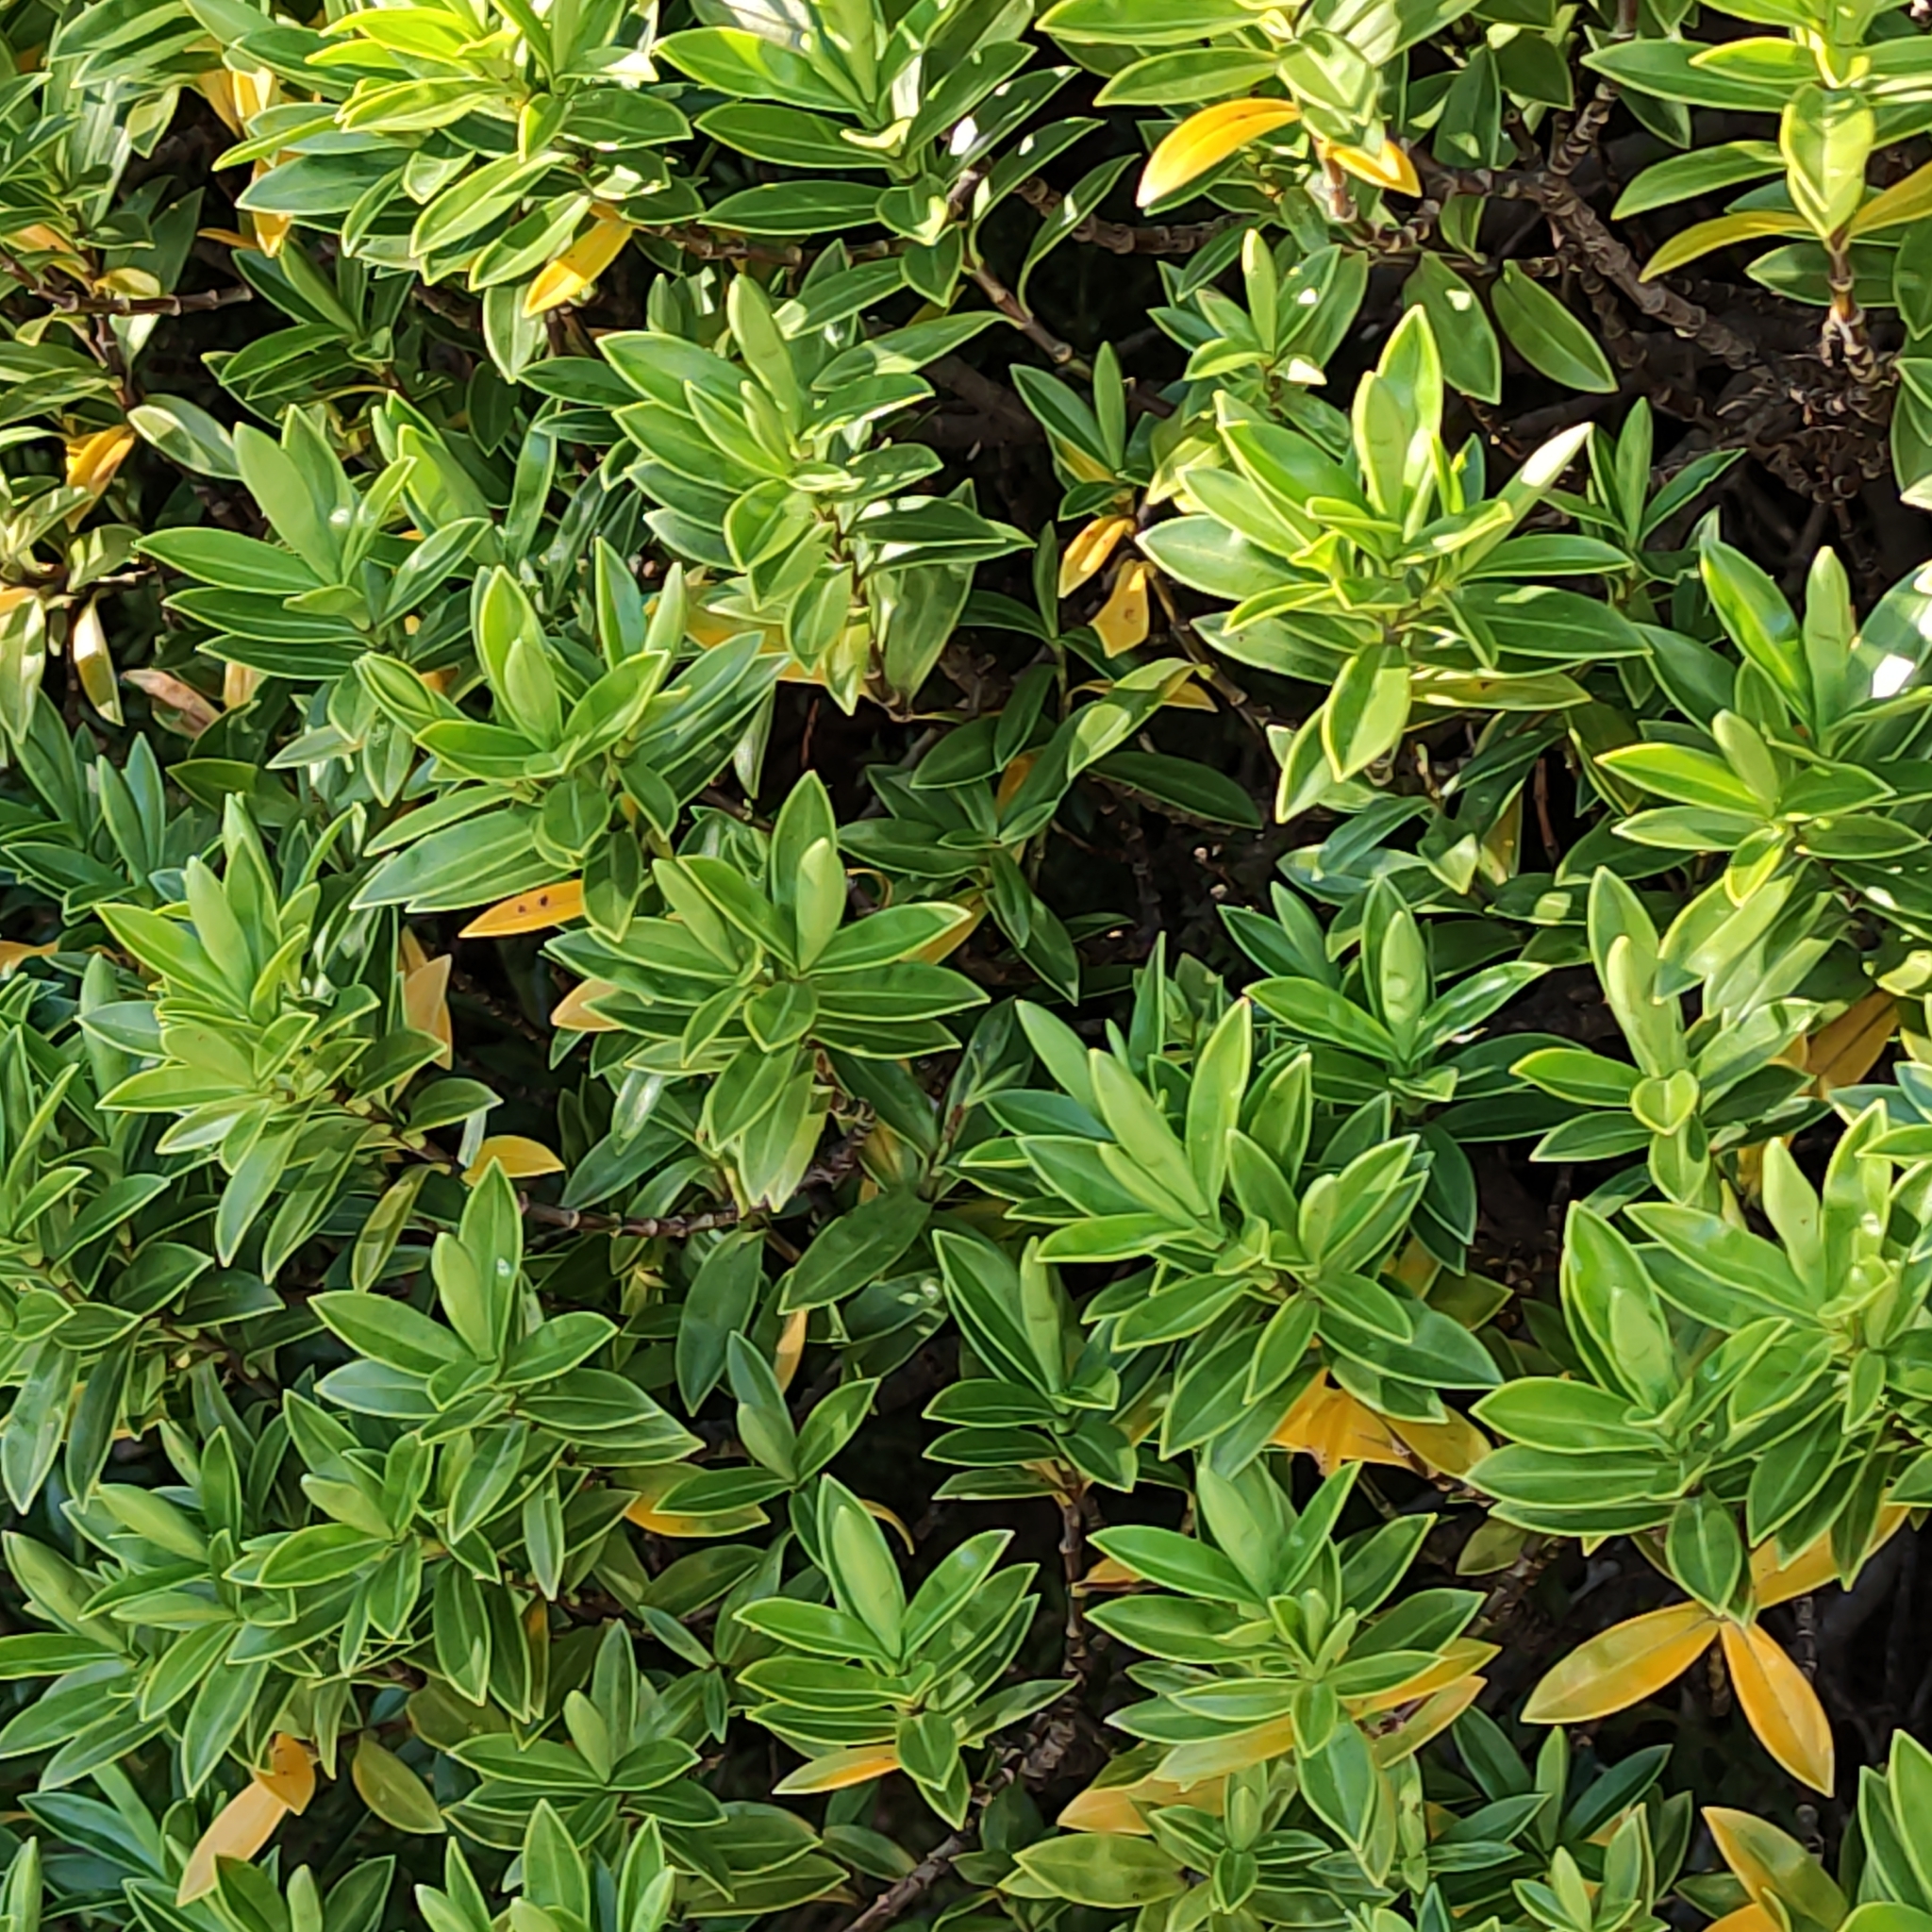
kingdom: Plantae
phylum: Tracheophyta
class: Magnoliopsida
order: Lamiales
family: Plantaginaceae
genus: Veronica
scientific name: Veronica subalpina
